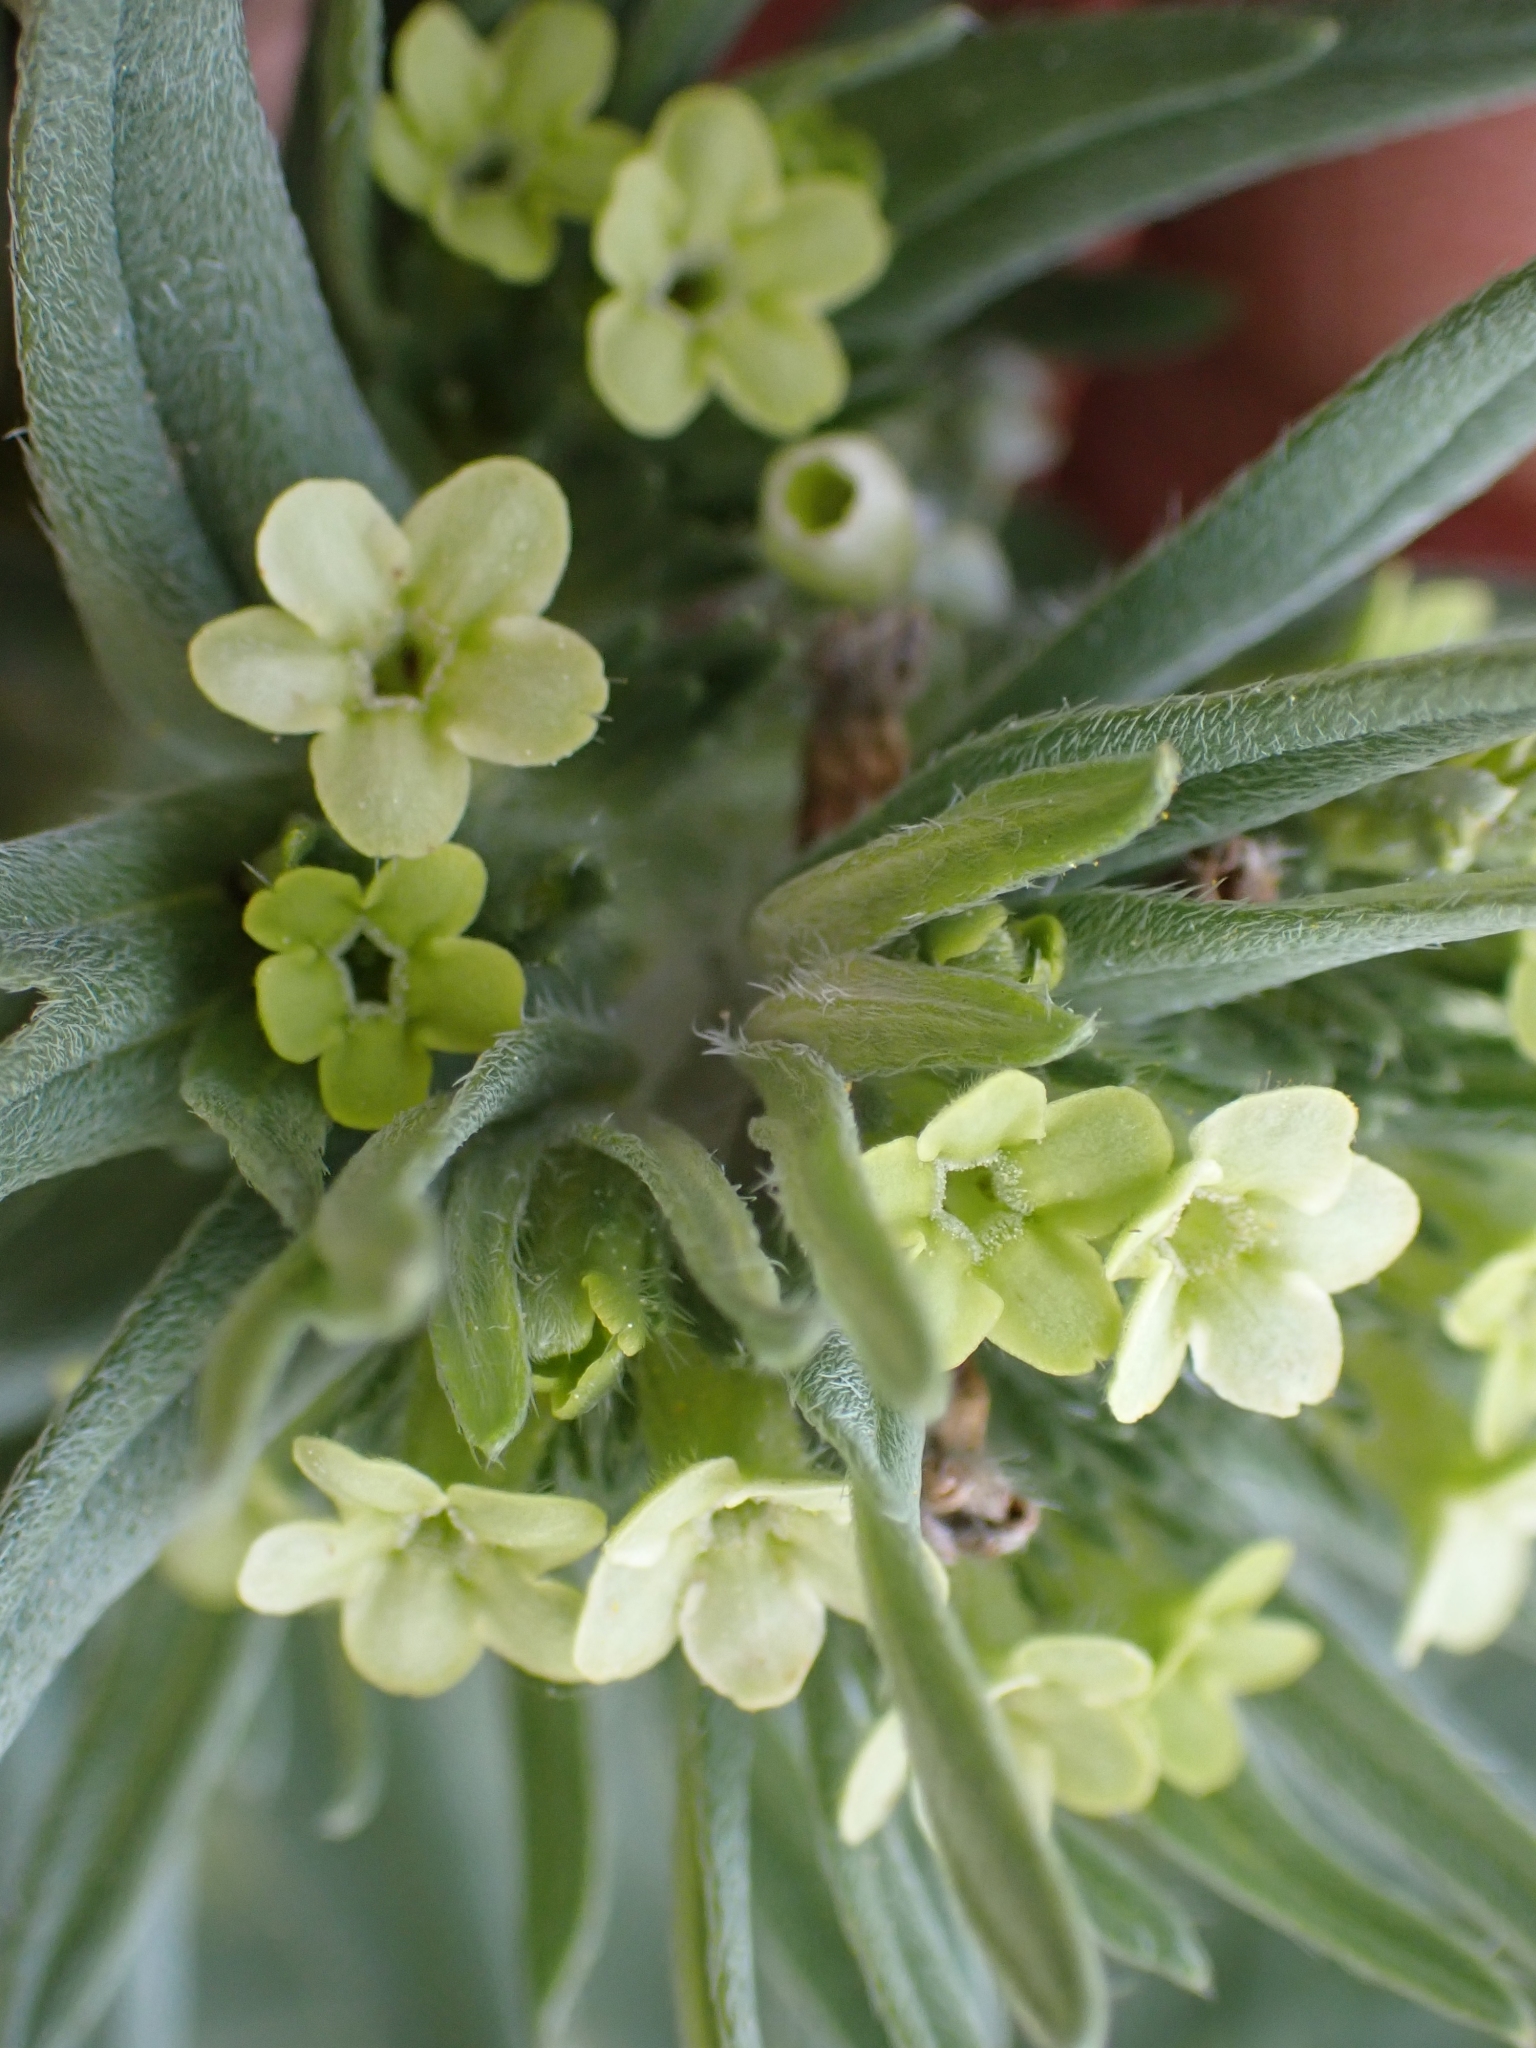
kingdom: Plantae
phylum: Tracheophyta
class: Magnoliopsida
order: Boraginales
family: Boraginaceae
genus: Lithospermum
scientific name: Lithospermum ruderale
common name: Western gromwell
